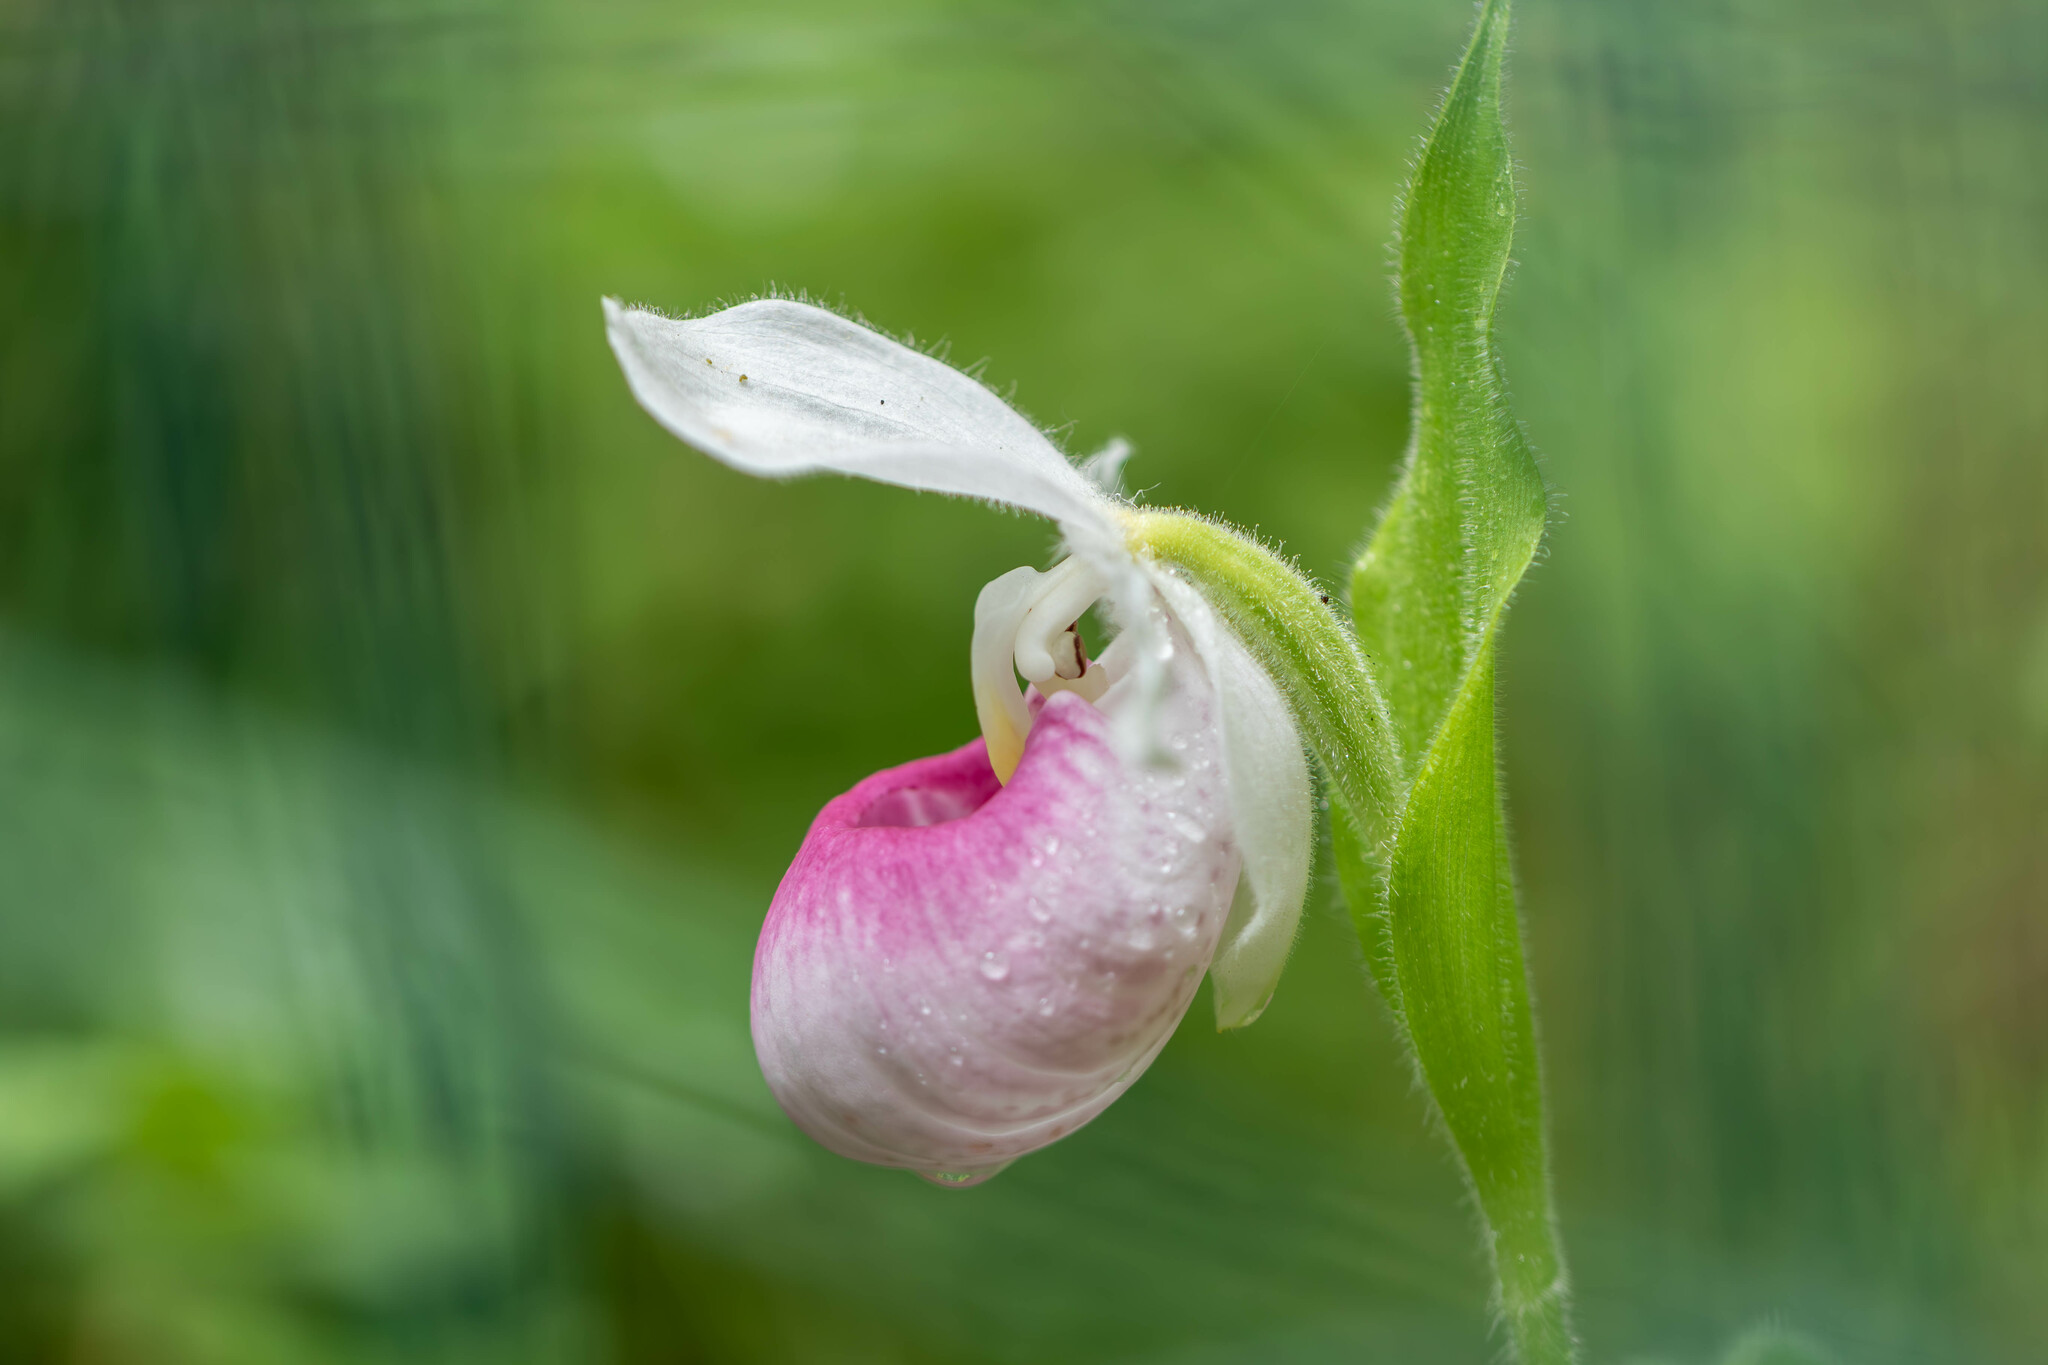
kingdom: Plantae
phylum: Tracheophyta
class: Liliopsida
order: Asparagales
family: Orchidaceae
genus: Cypripedium
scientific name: Cypripedium reginae
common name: Queen lady's-slipper
